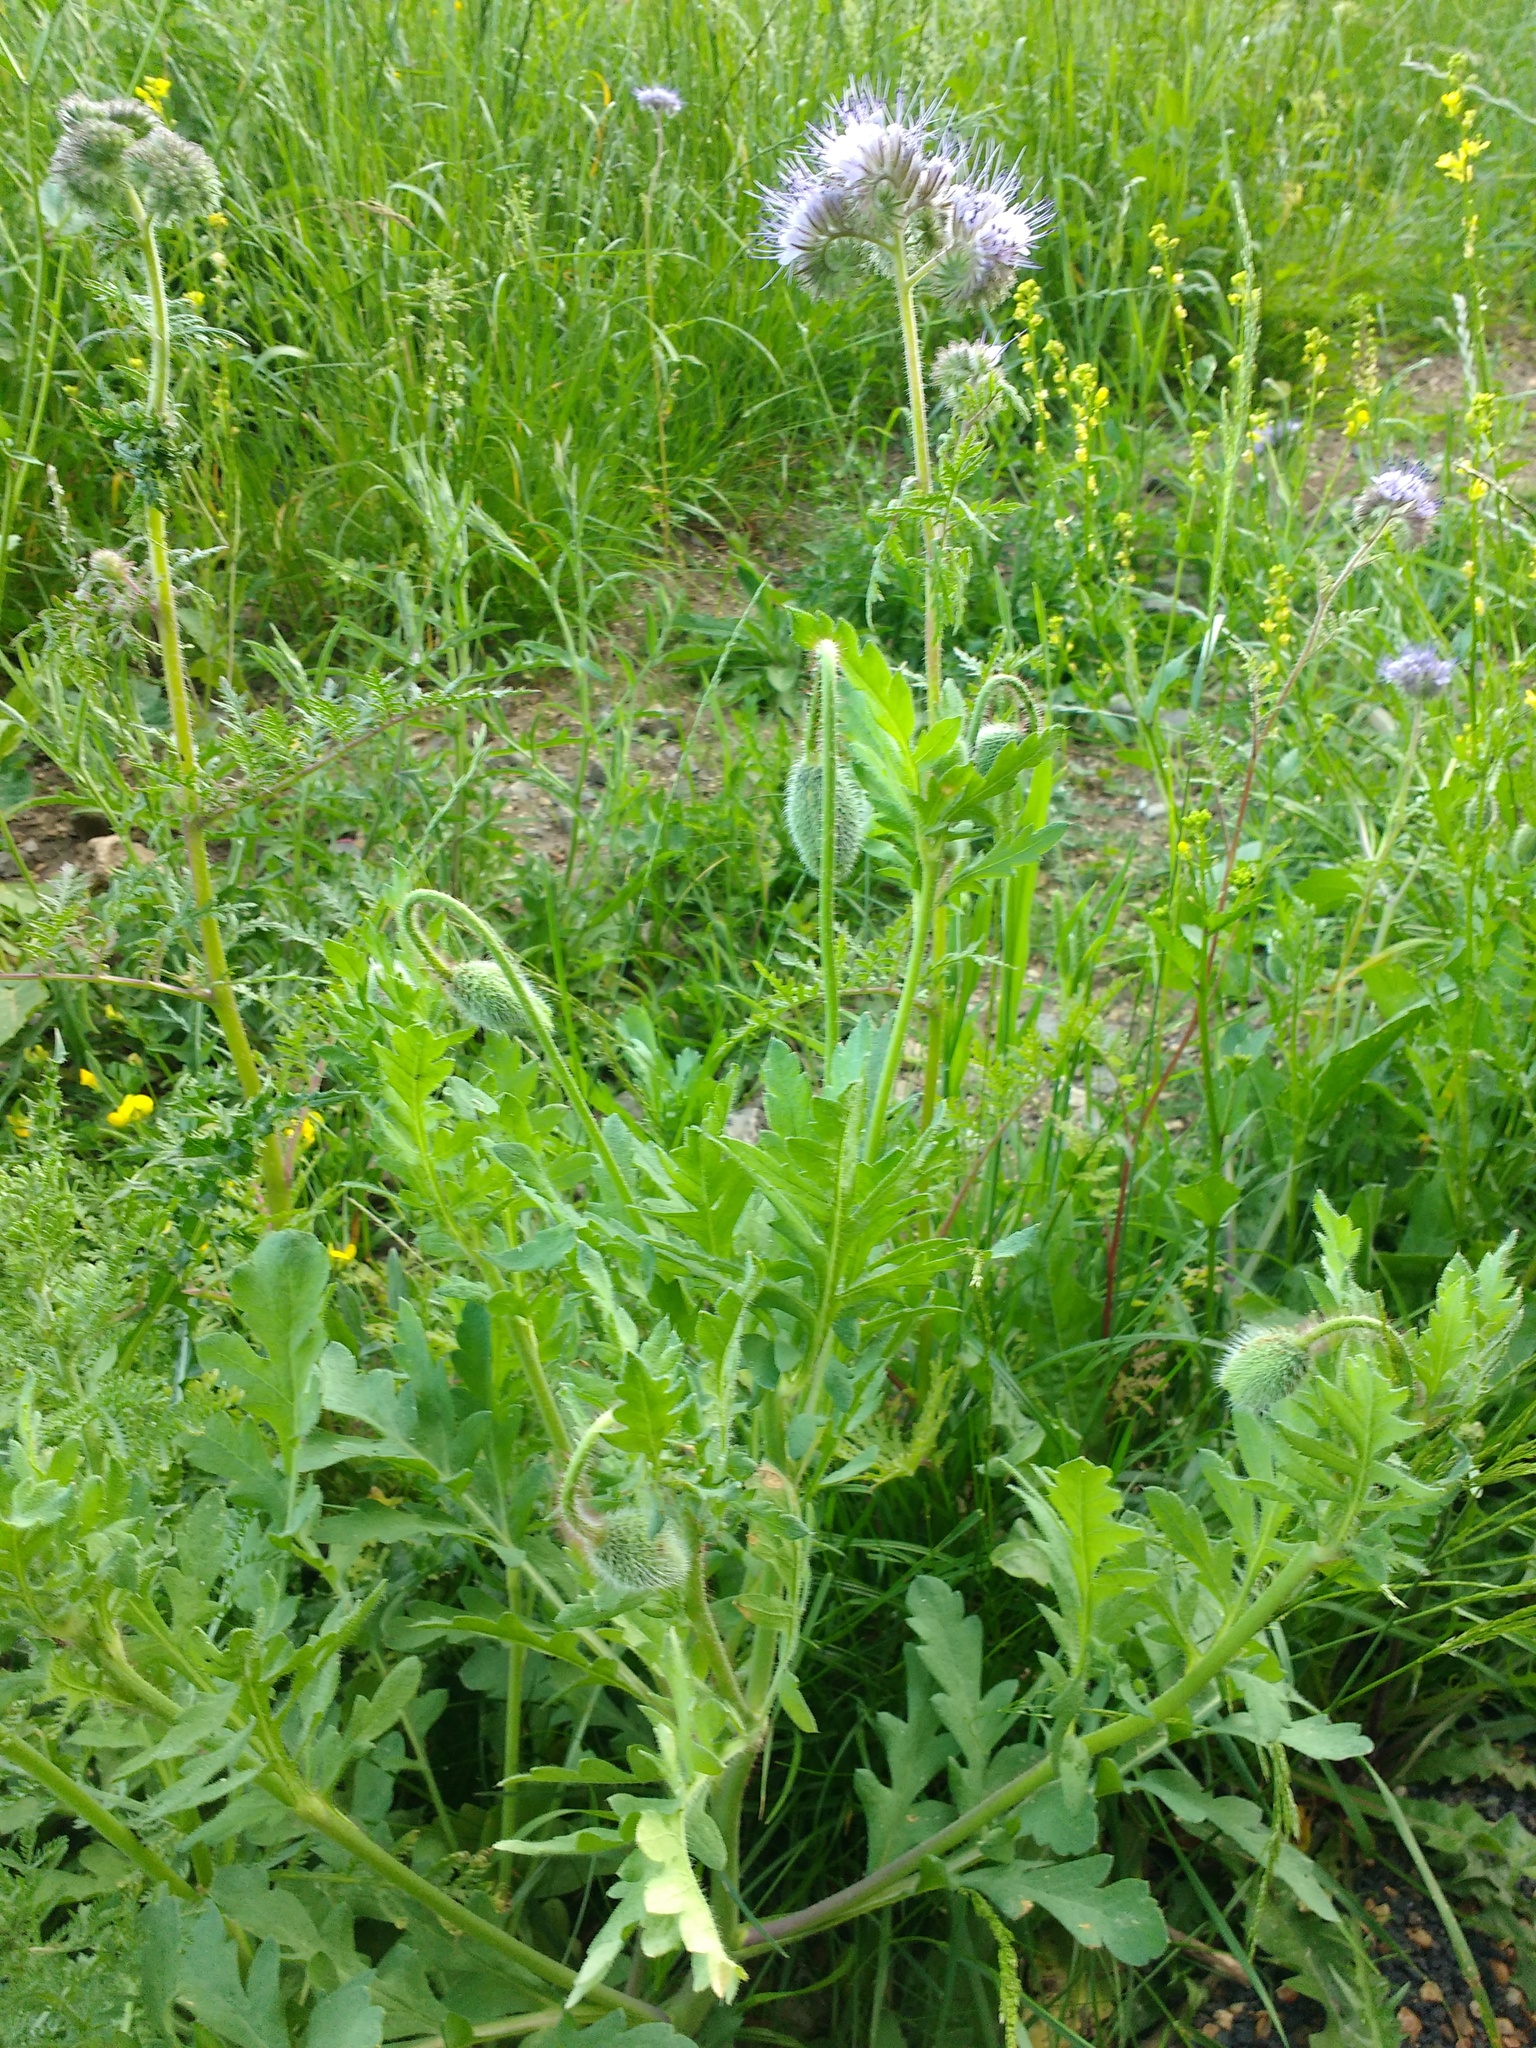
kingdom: Plantae
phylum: Tracheophyta
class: Magnoliopsida
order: Boraginales
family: Hydrophyllaceae
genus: Phacelia
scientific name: Phacelia tanacetifolia
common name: Phacelia
